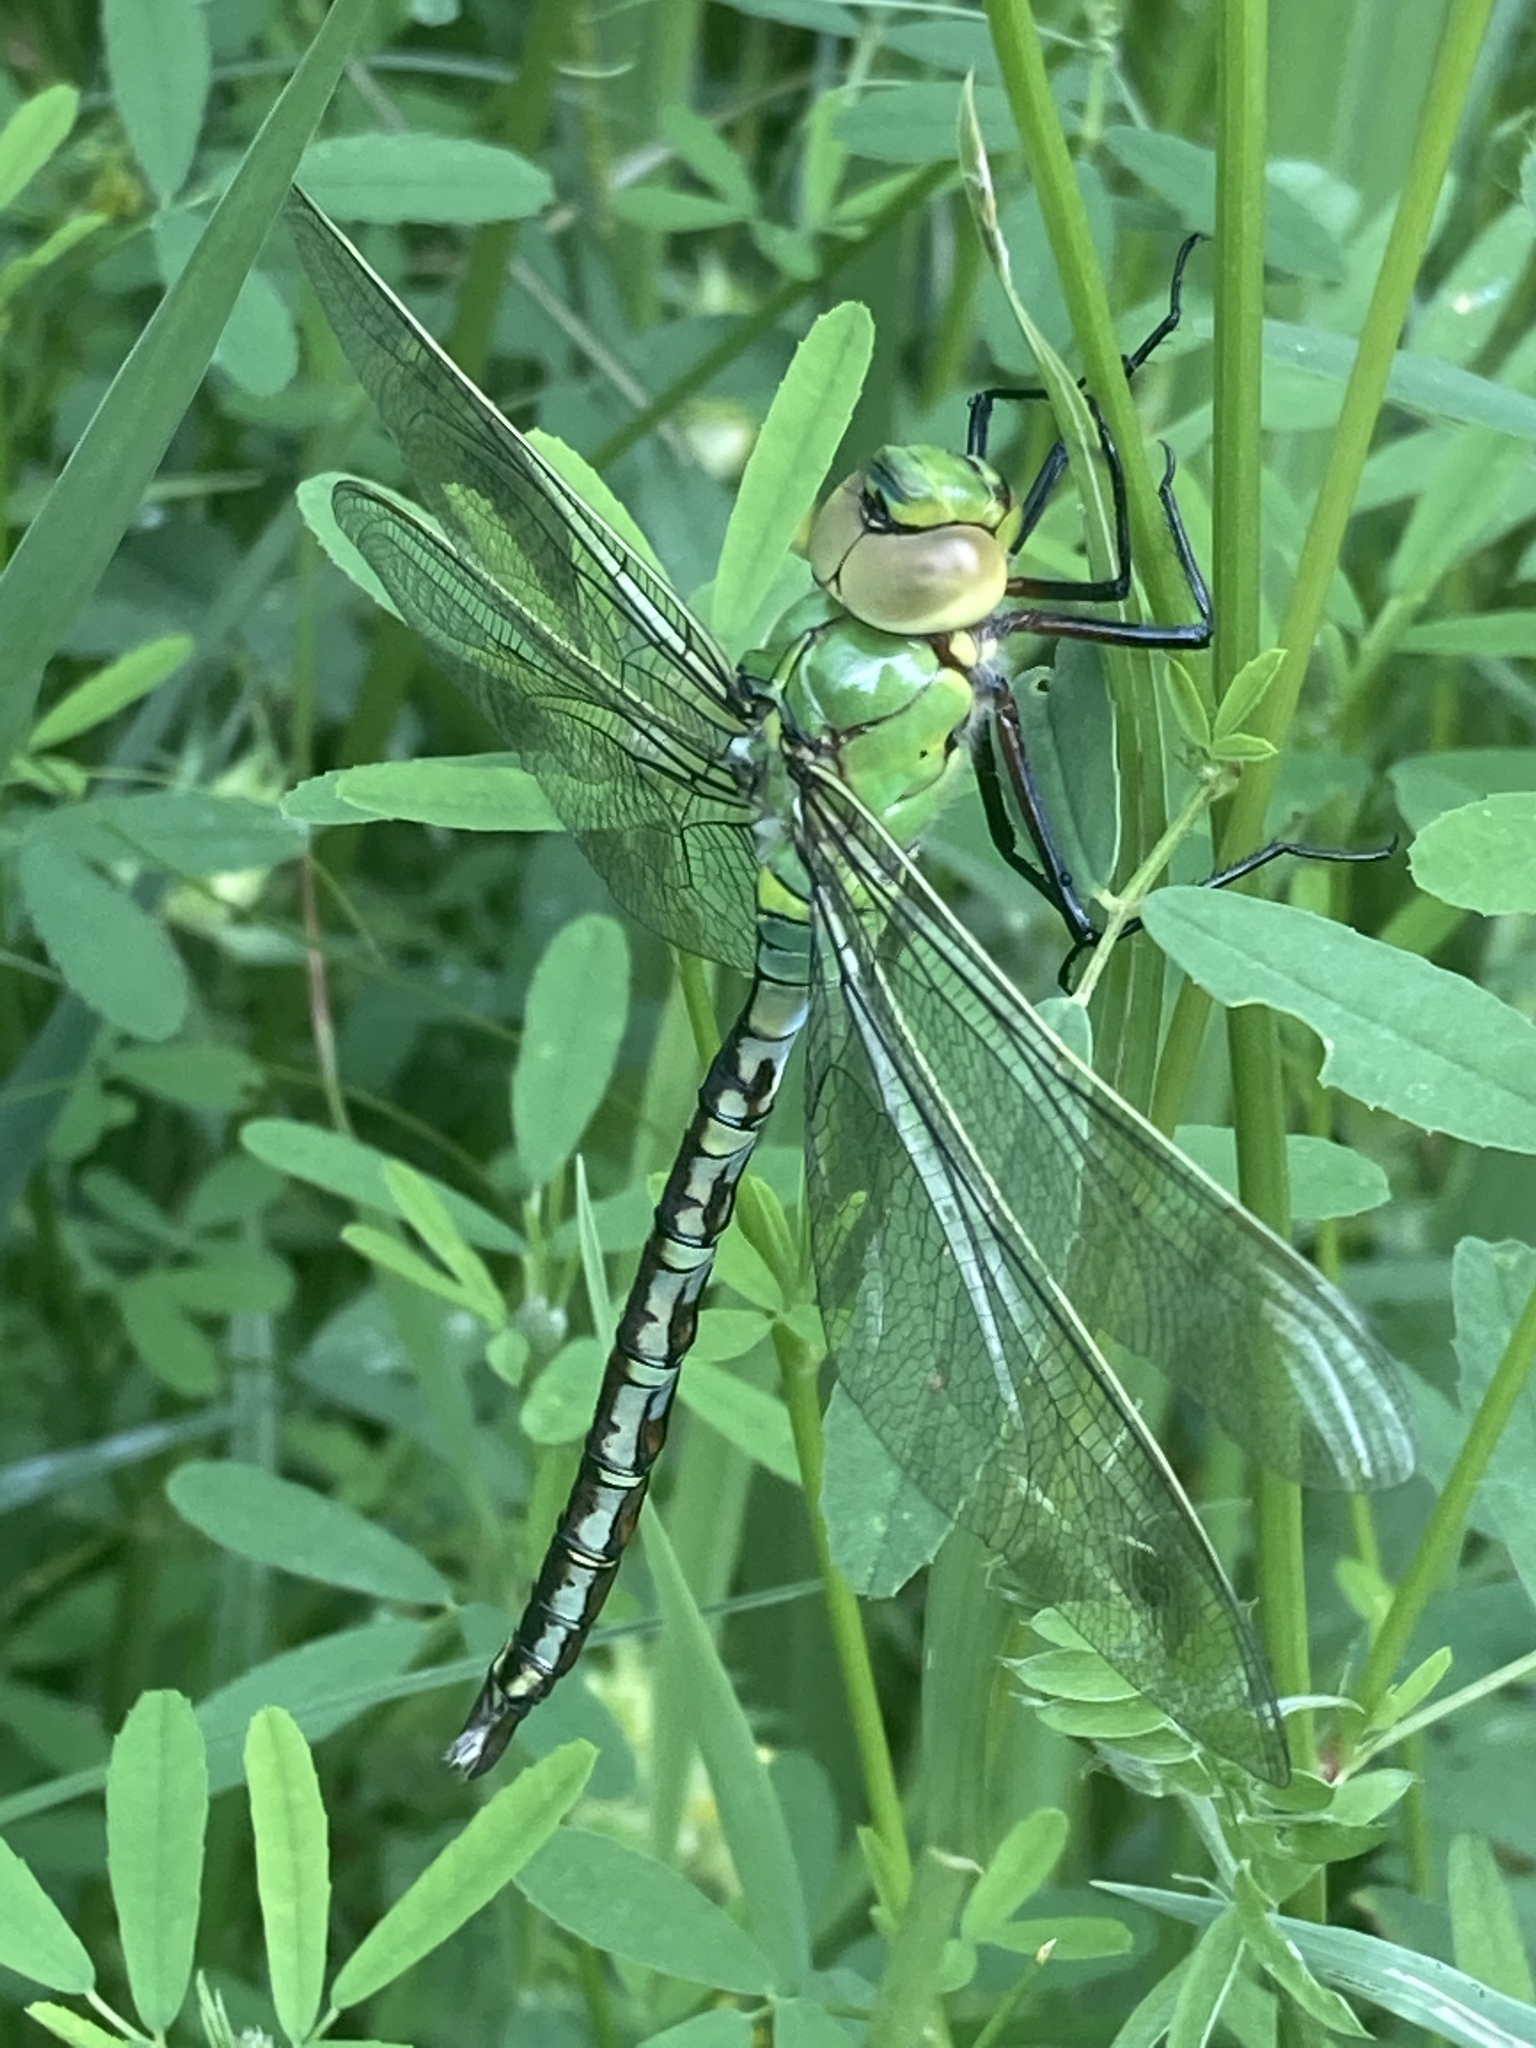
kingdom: Animalia
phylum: Arthropoda
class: Insecta
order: Odonata
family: Aeshnidae
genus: Anax
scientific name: Anax imperator
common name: Emperor dragonfly
